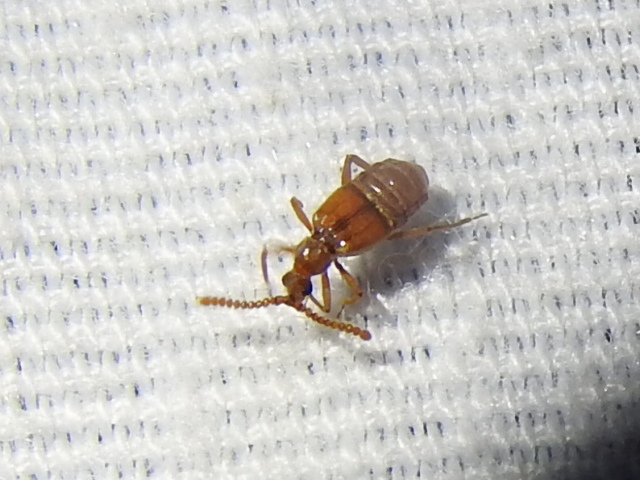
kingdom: Animalia
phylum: Arthropoda
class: Insecta
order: Coleoptera
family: Staphylinidae
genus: Atinus
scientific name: Atinus monilicornis
